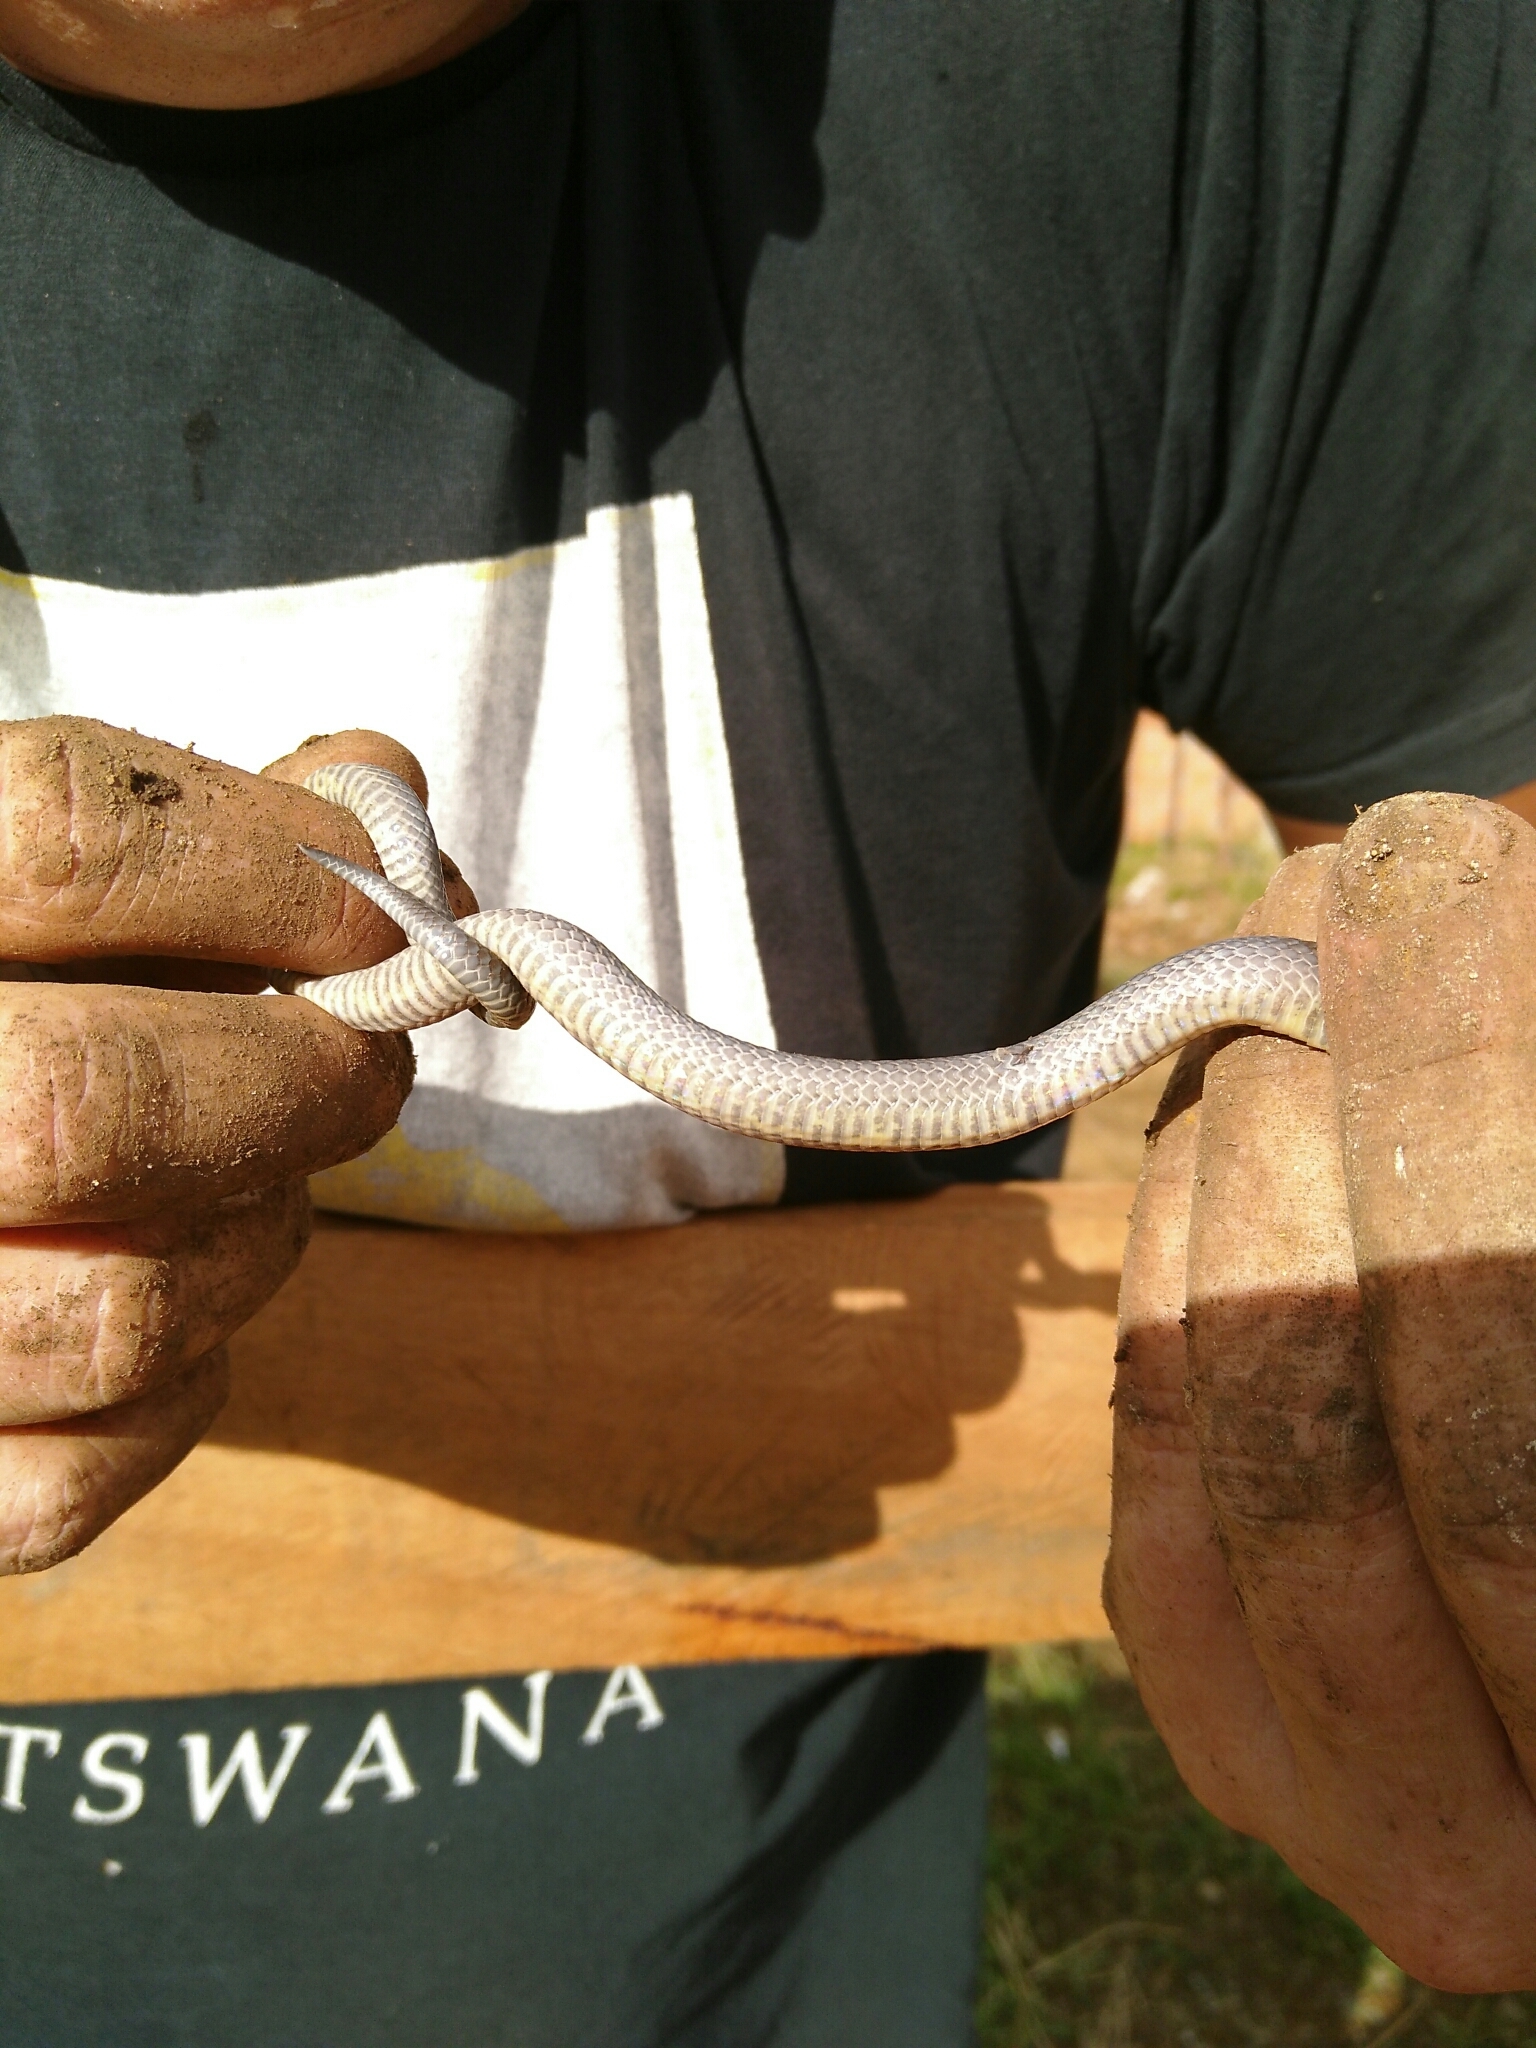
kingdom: Animalia
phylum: Chordata
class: Squamata
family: Colubridae
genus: Atractus
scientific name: Atractus nicefori
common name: Northern ground snake
